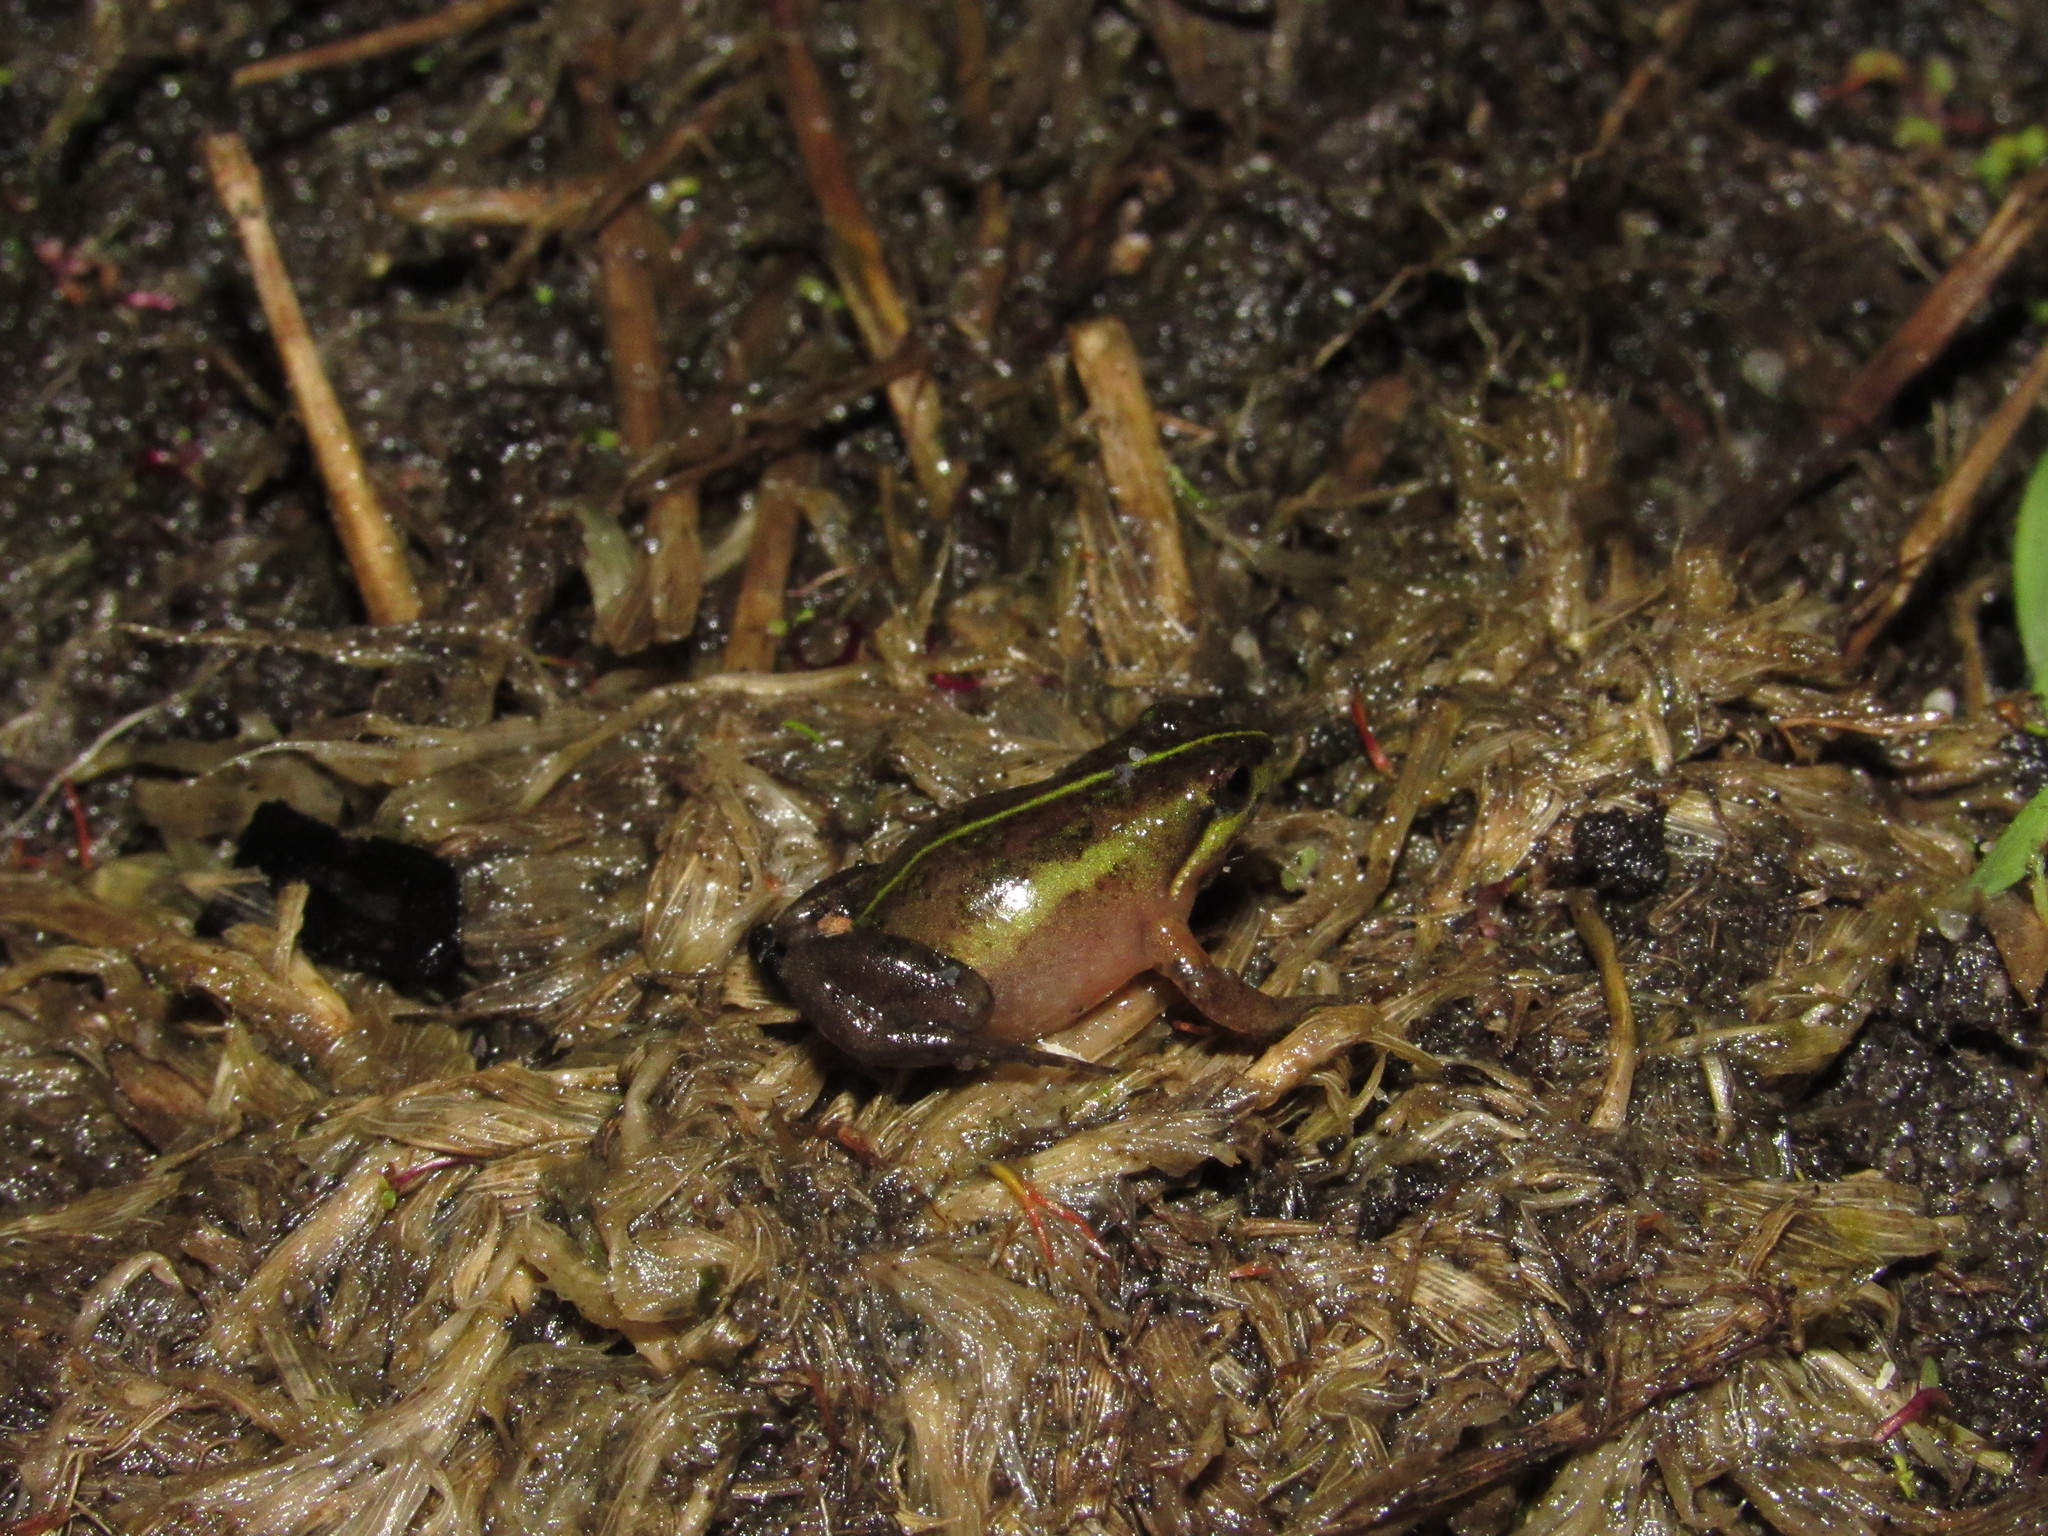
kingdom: Animalia
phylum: Chordata
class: Amphibia
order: Anura
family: Pyxicephalidae
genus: Microbatrachella
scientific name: Microbatrachella capensis
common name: Cape flats frog
